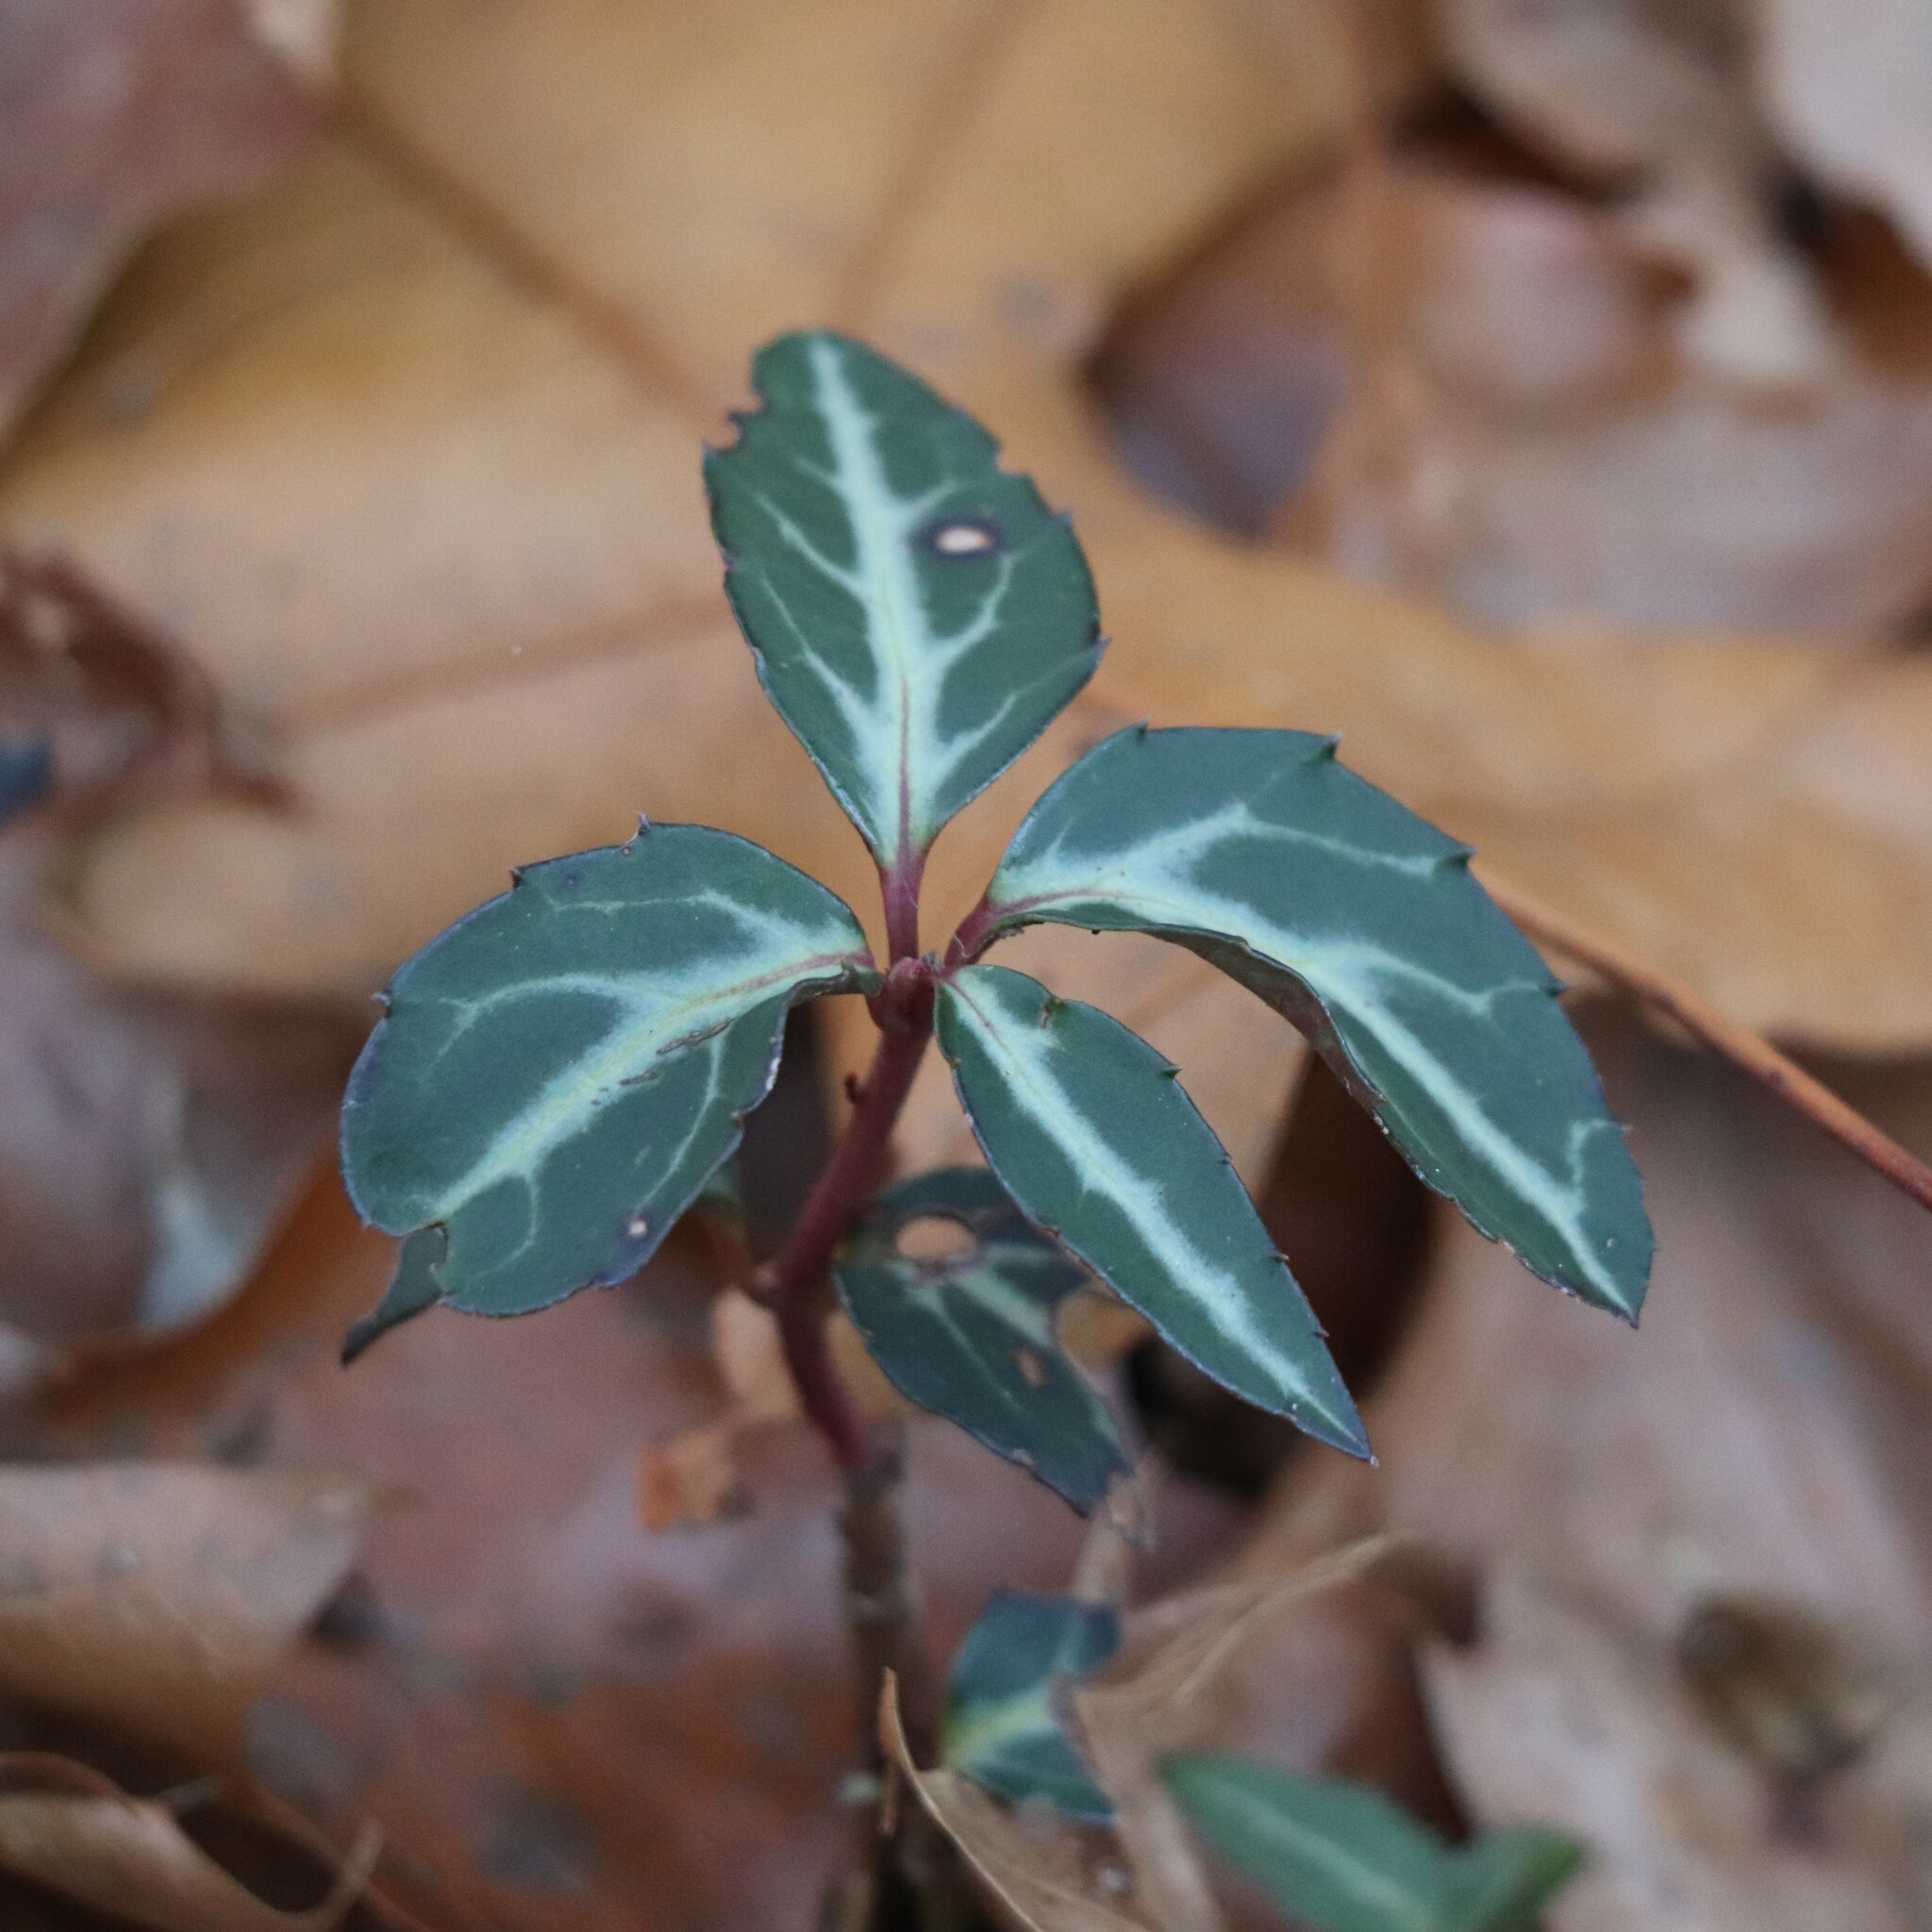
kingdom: Plantae
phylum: Tracheophyta
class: Magnoliopsida
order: Ericales
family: Ericaceae
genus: Chimaphila
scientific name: Chimaphila maculata
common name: Spotted pipsissewa
